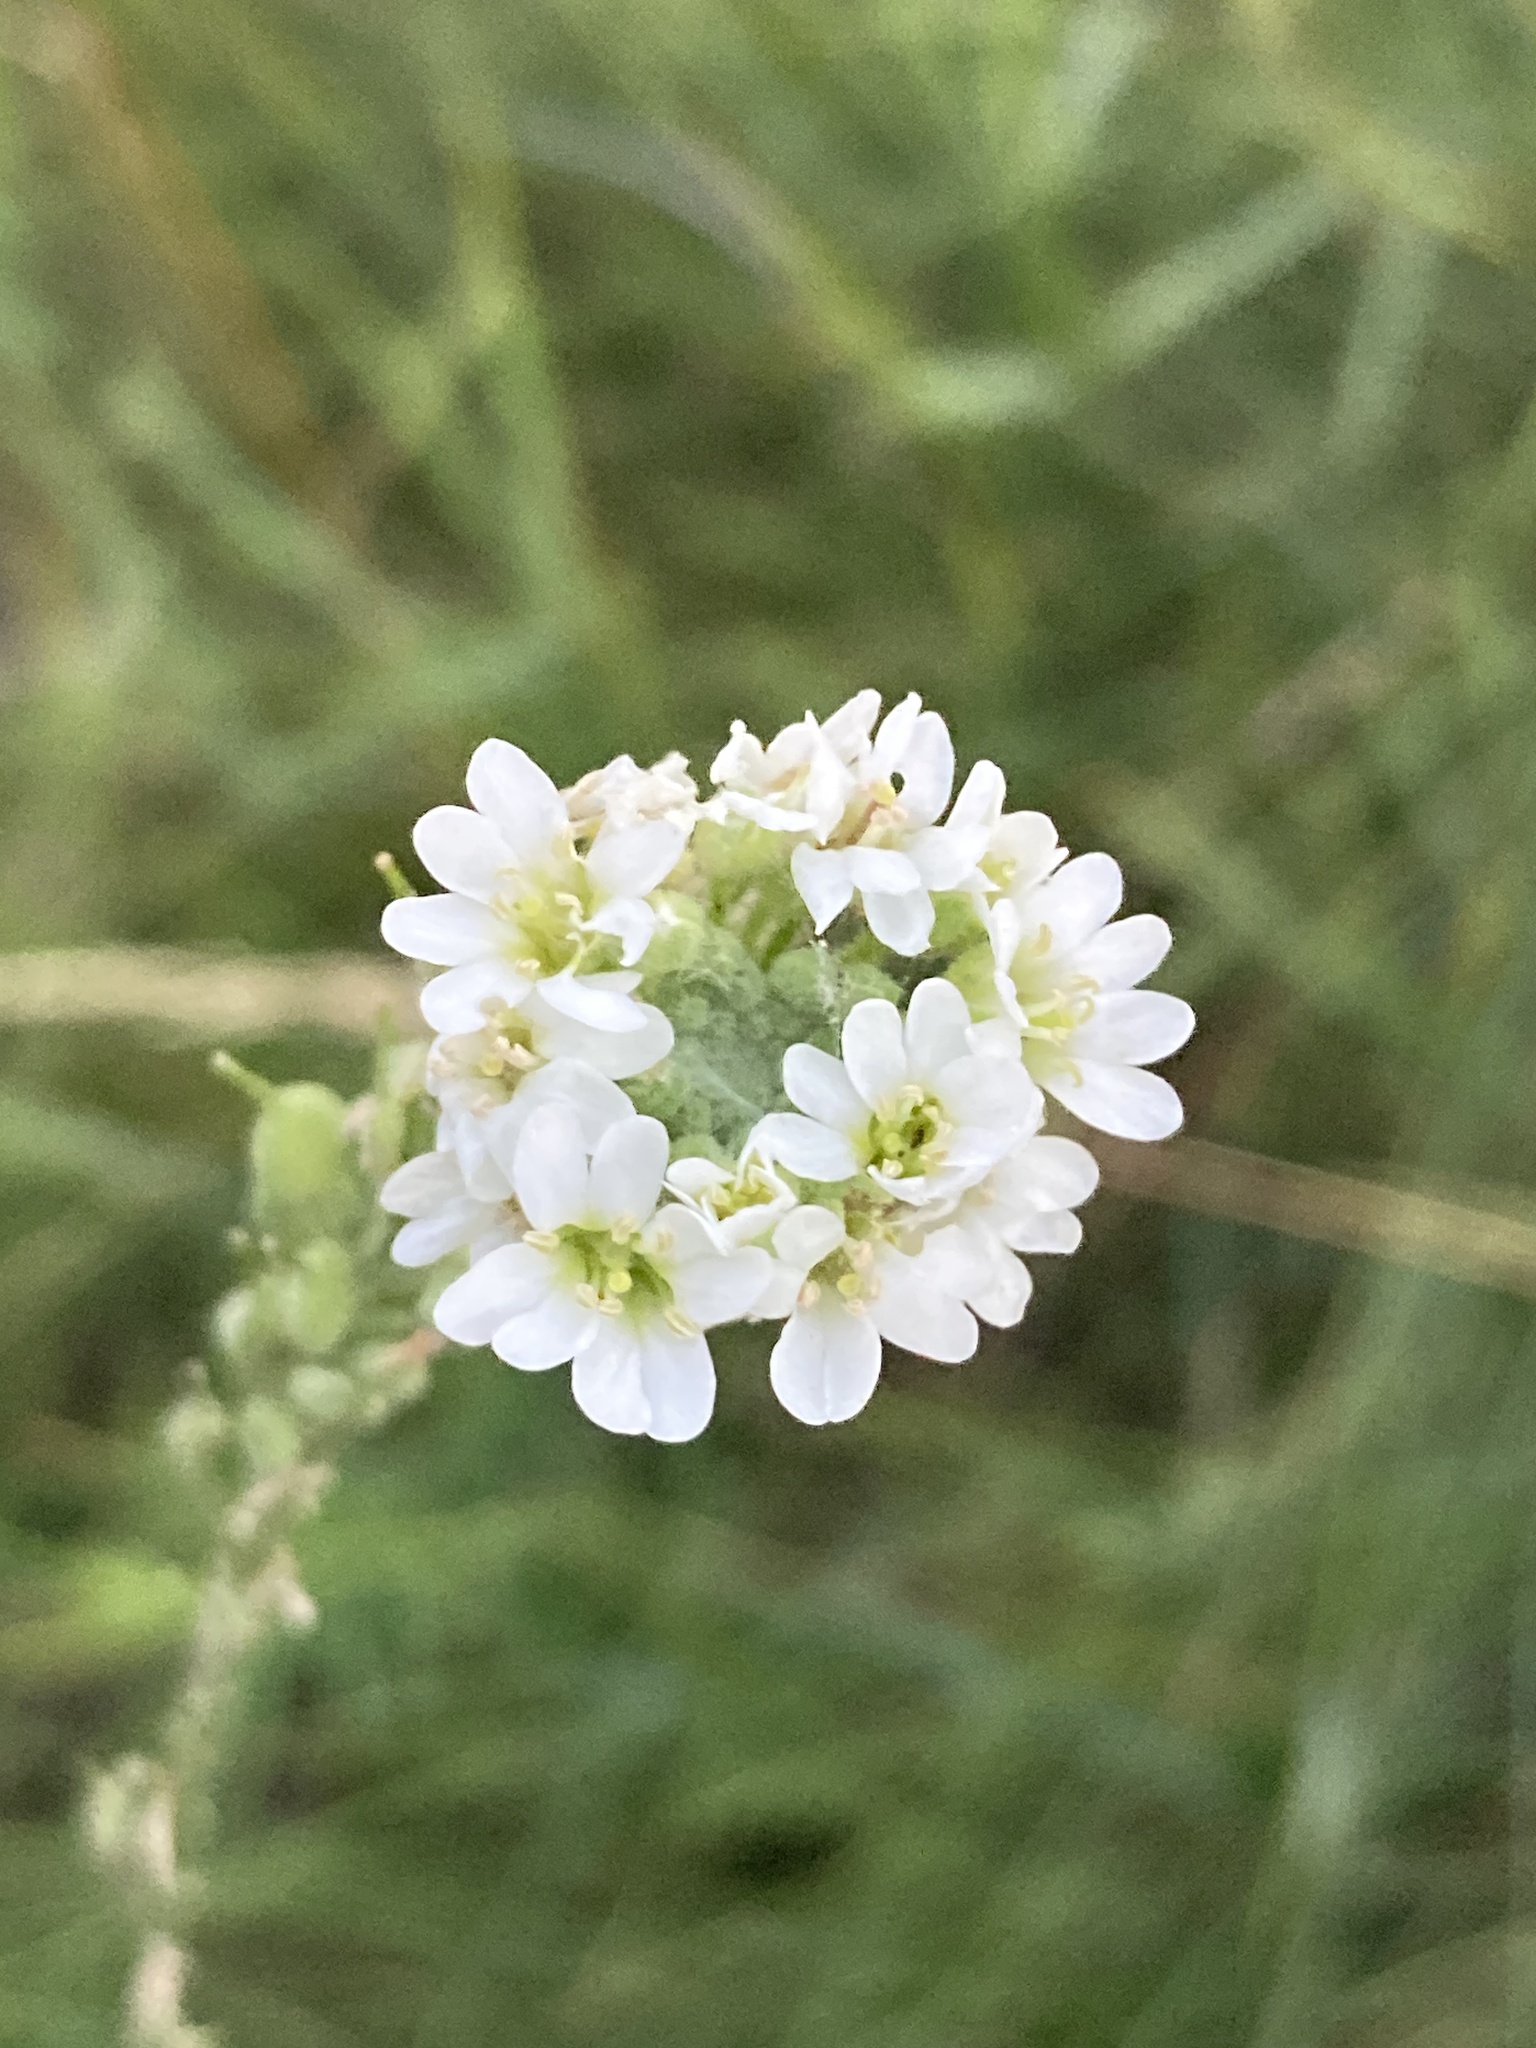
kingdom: Plantae
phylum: Tracheophyta
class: Magnoliopsida
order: Brassicales
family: Brassicaceae
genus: Berteroa
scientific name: Berteroa incana
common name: Hoary alison
